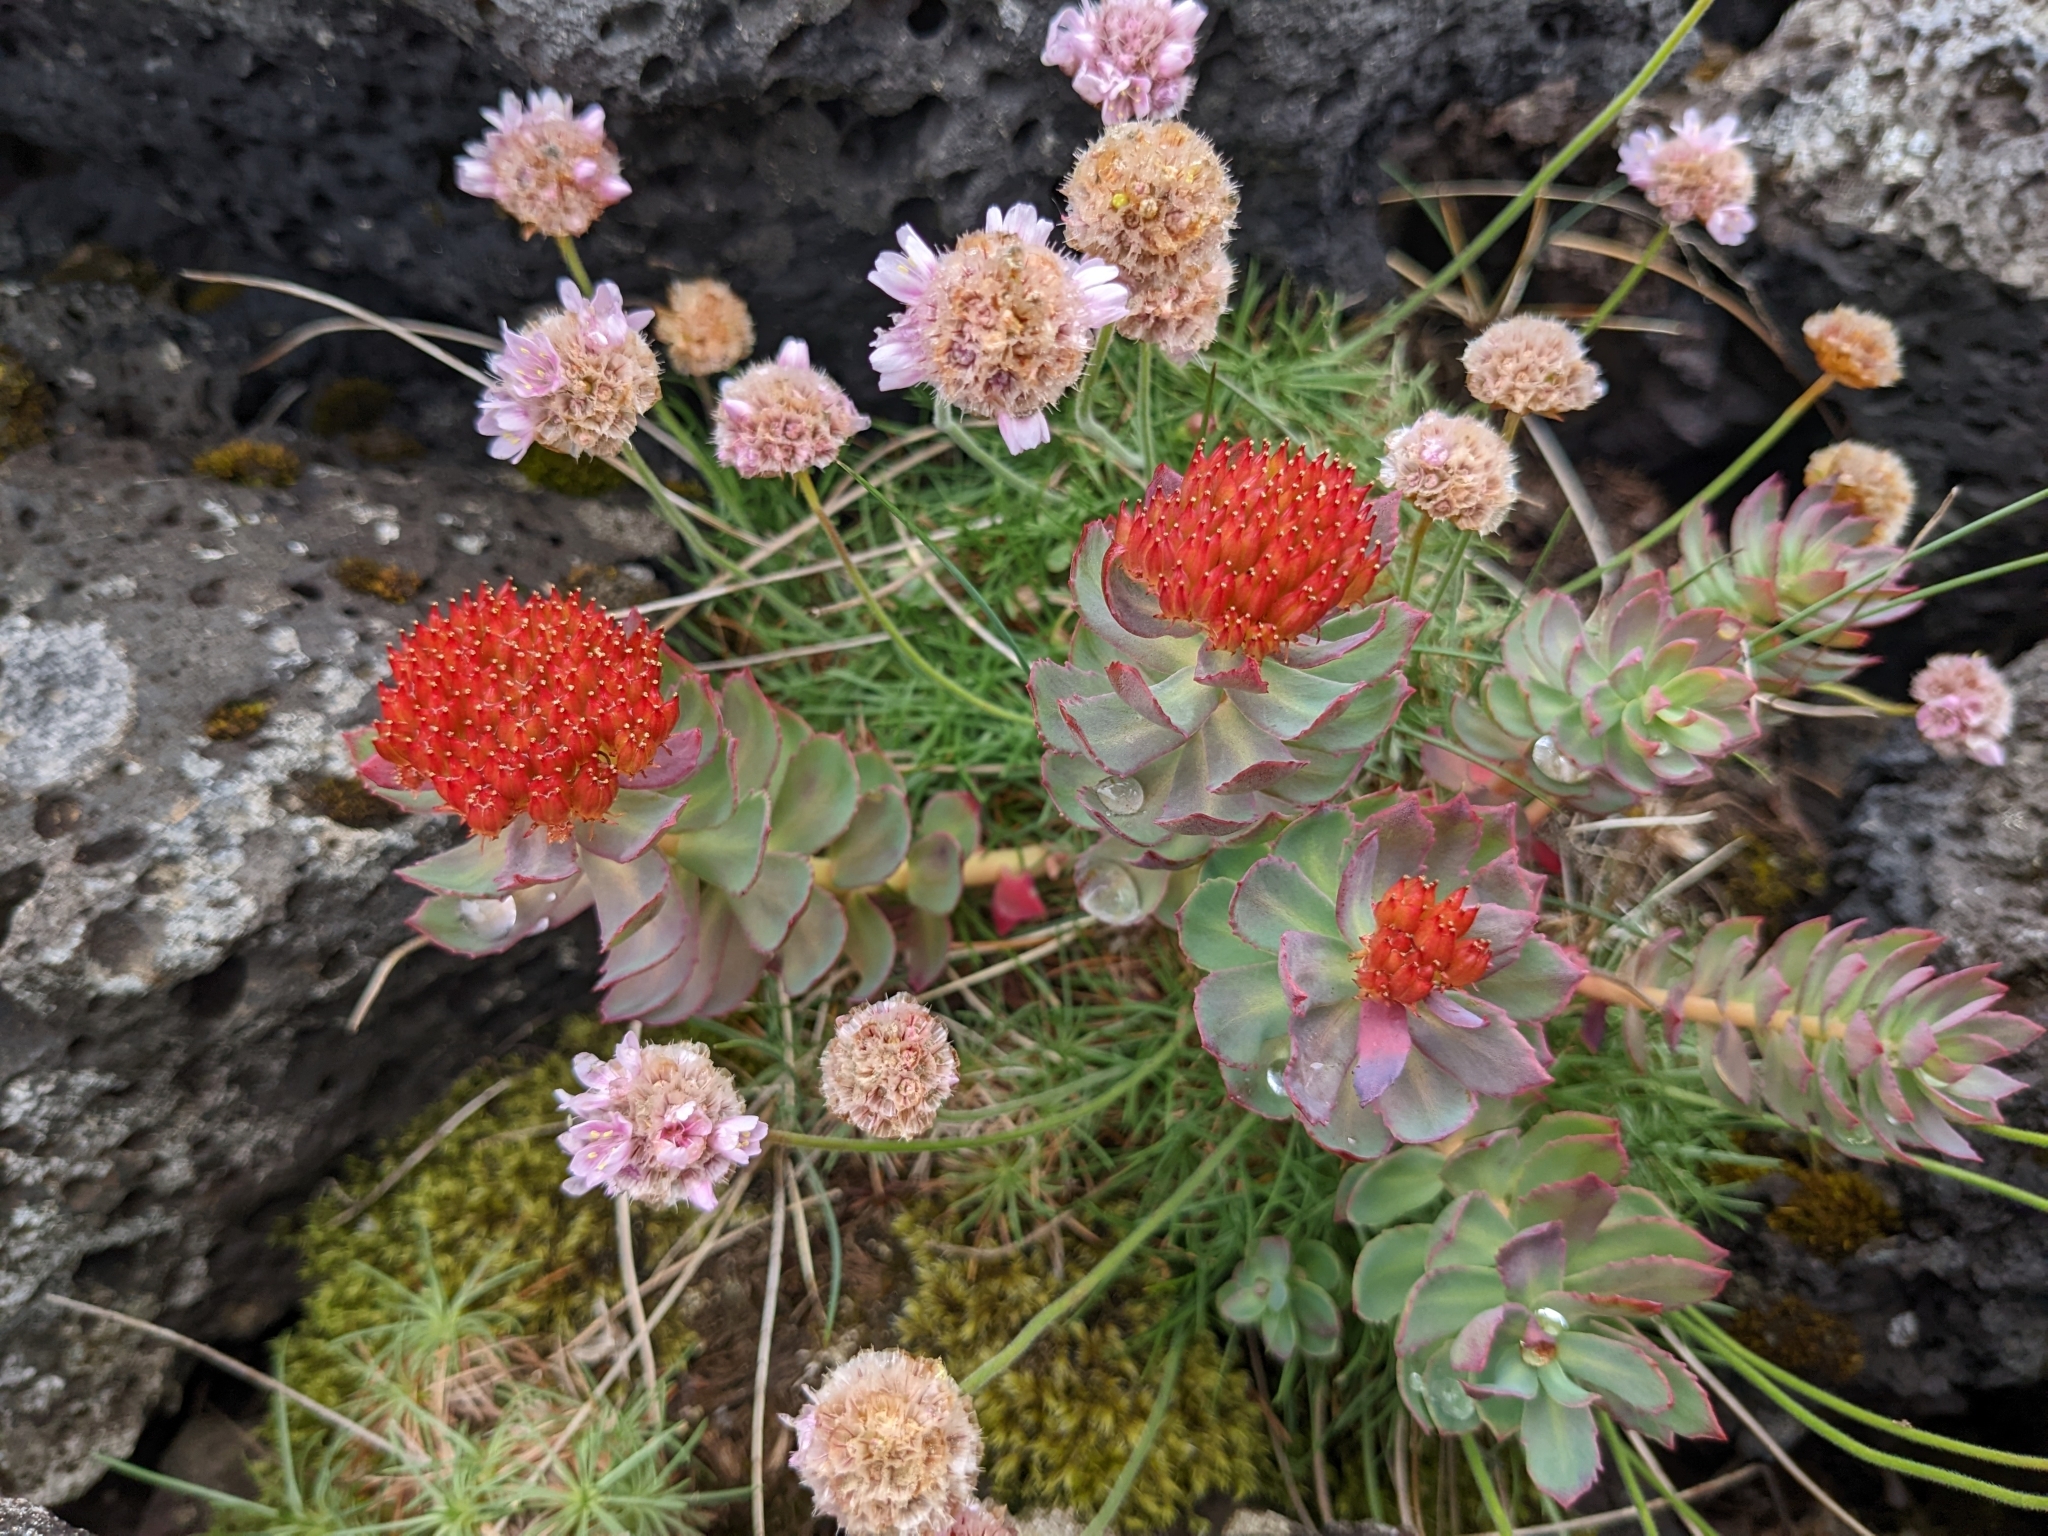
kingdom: Plantae
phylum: Tracheophyta
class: Magnoliopsida
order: Saxifragales
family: Crassulaceae
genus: Rhodiola
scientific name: Rhodiola rosea
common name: Roseroot
